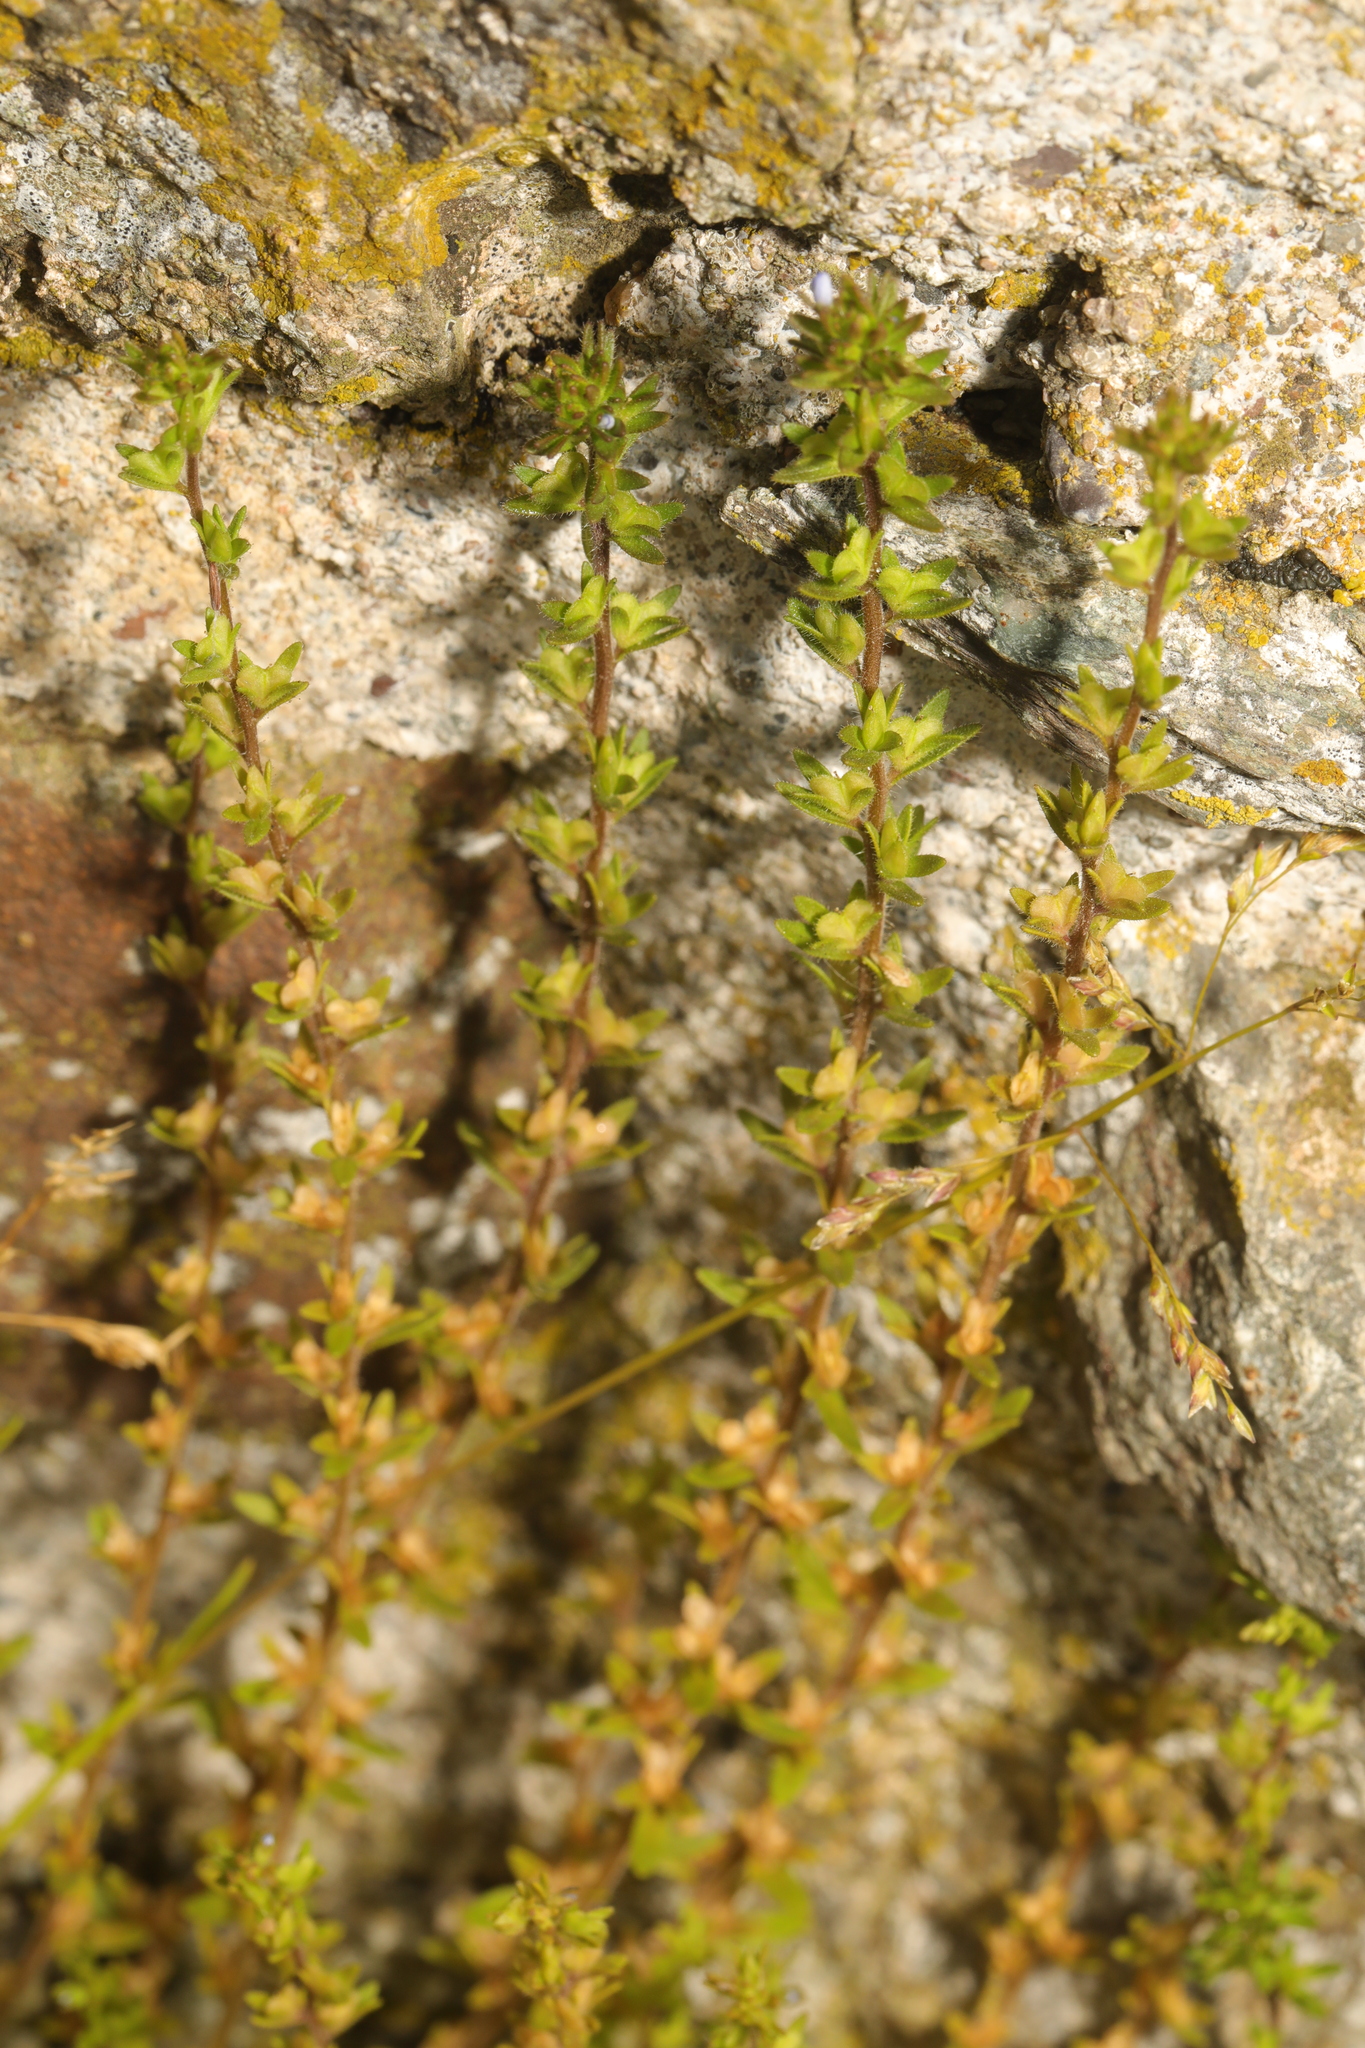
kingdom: Plantae
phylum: Tracheophyta
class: Magnoliopsida
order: Lamiales
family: Plantaginaceae
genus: Veronica
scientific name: Veronica arvensis
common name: Corn speedwell
